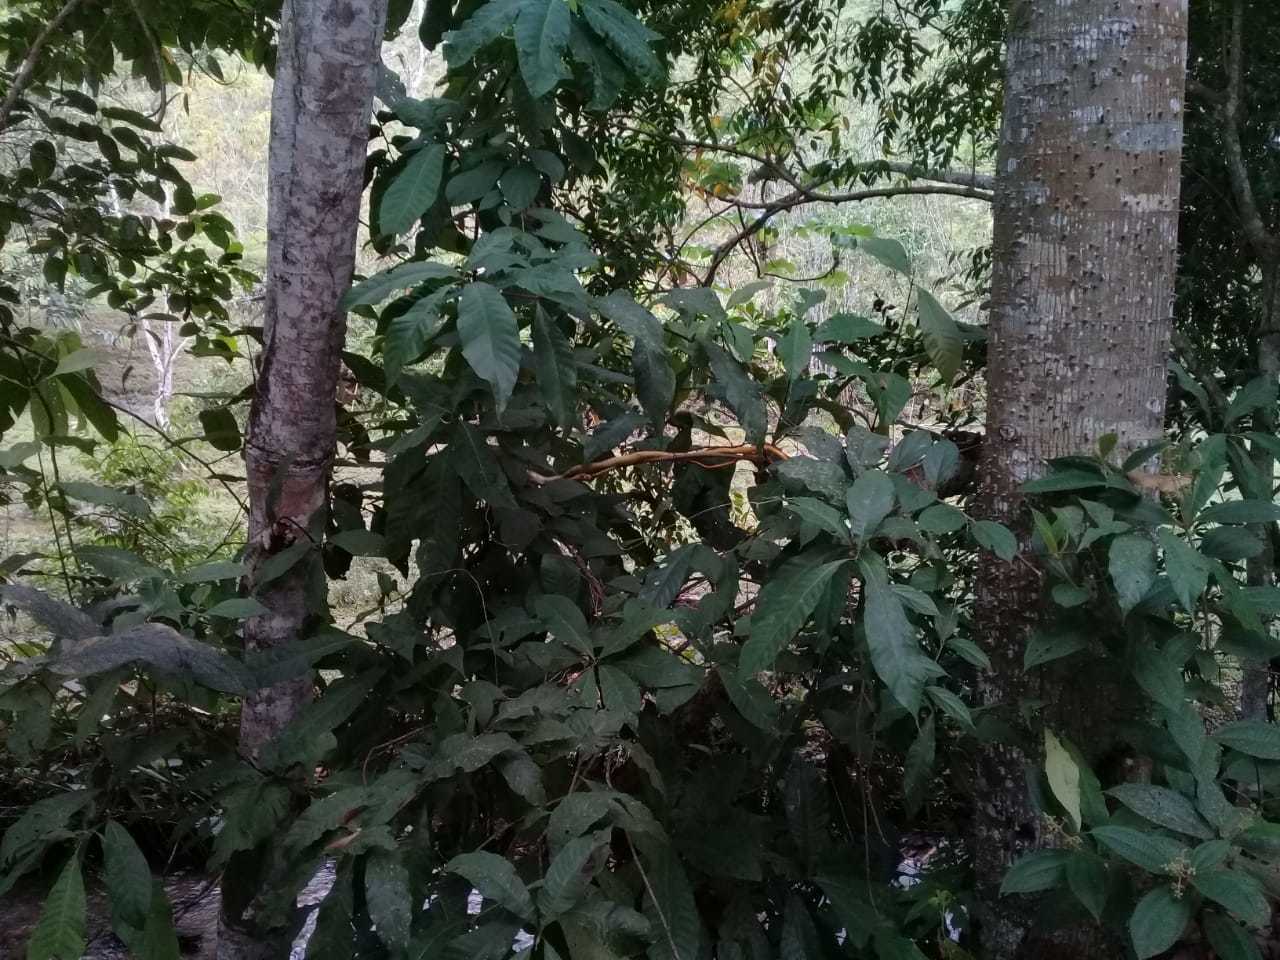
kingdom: Animalia
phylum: Chordata
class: Squamata
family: Colubridae
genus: Spilotes
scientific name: Spilotes pullatus
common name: Chicken snake
